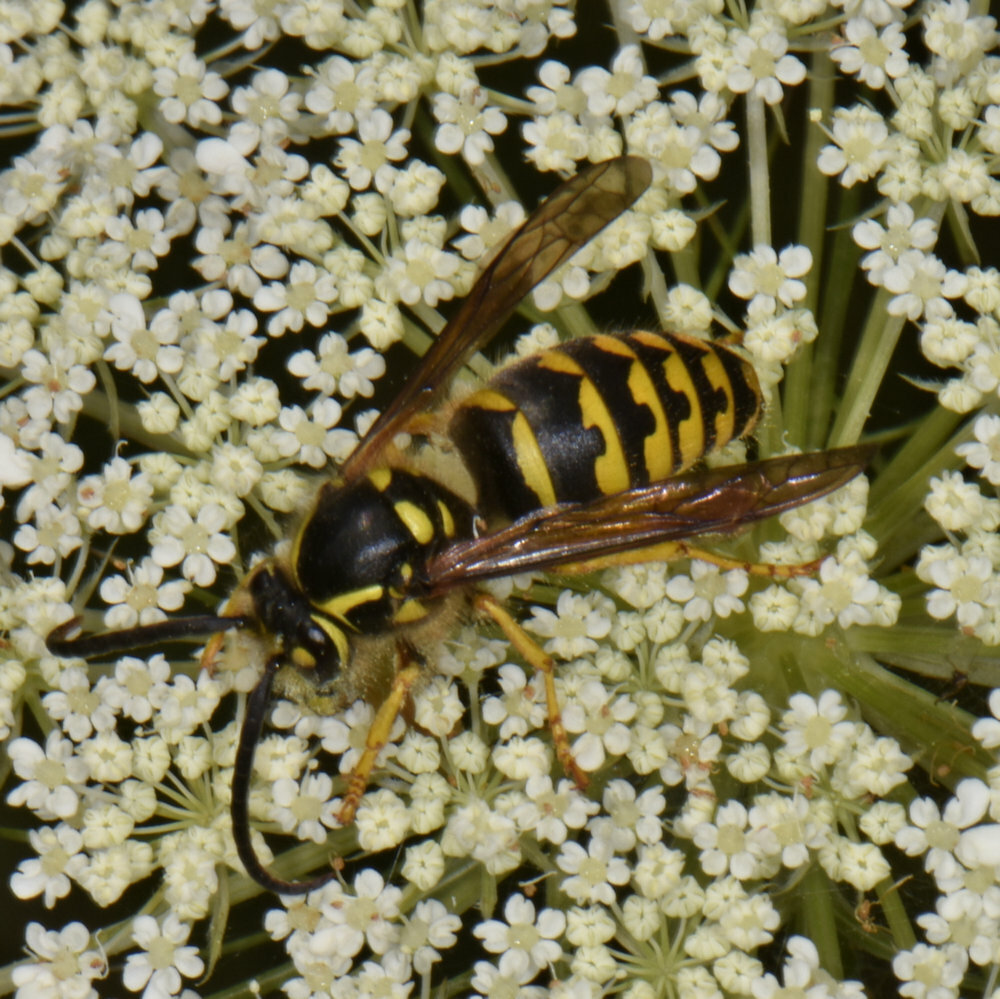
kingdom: Animalia
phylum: Arthropoda
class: Insecta
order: Hymenoptera
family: Vespidae
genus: Dolichovespula
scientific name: Dolichovespula arenaria
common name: Aerial yellowjacket
